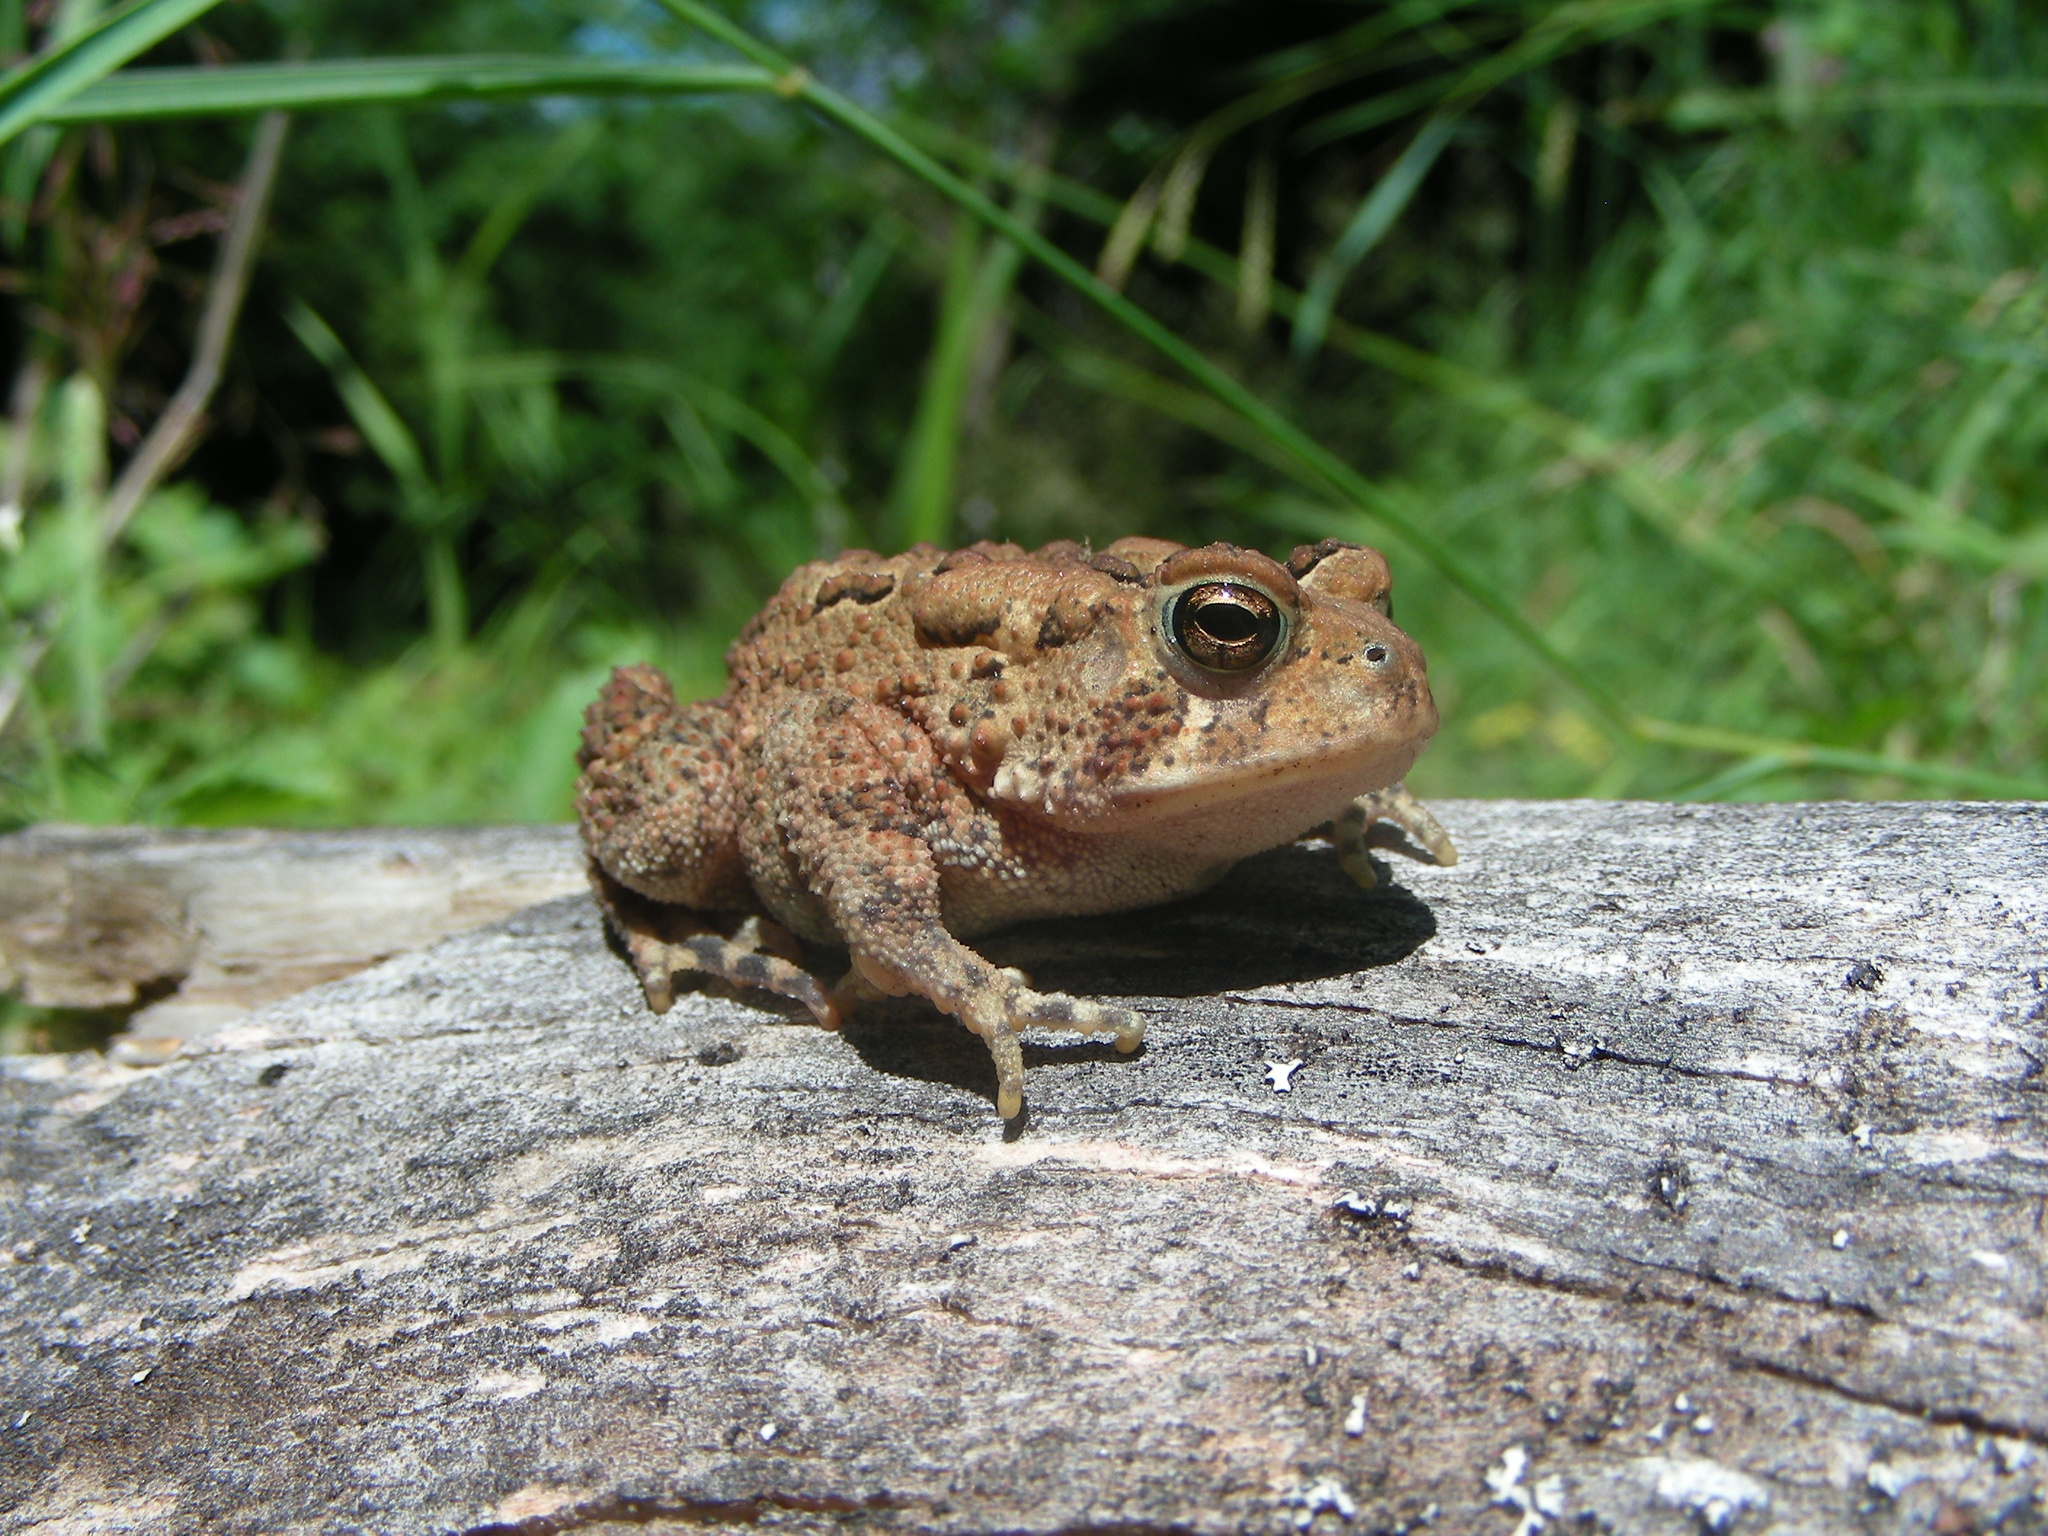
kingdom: Animalia
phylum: Chordata
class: Amphibia
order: Anura
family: Bufonidae
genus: Anaxyrus
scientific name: Anaxyrus americanus
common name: American toad
